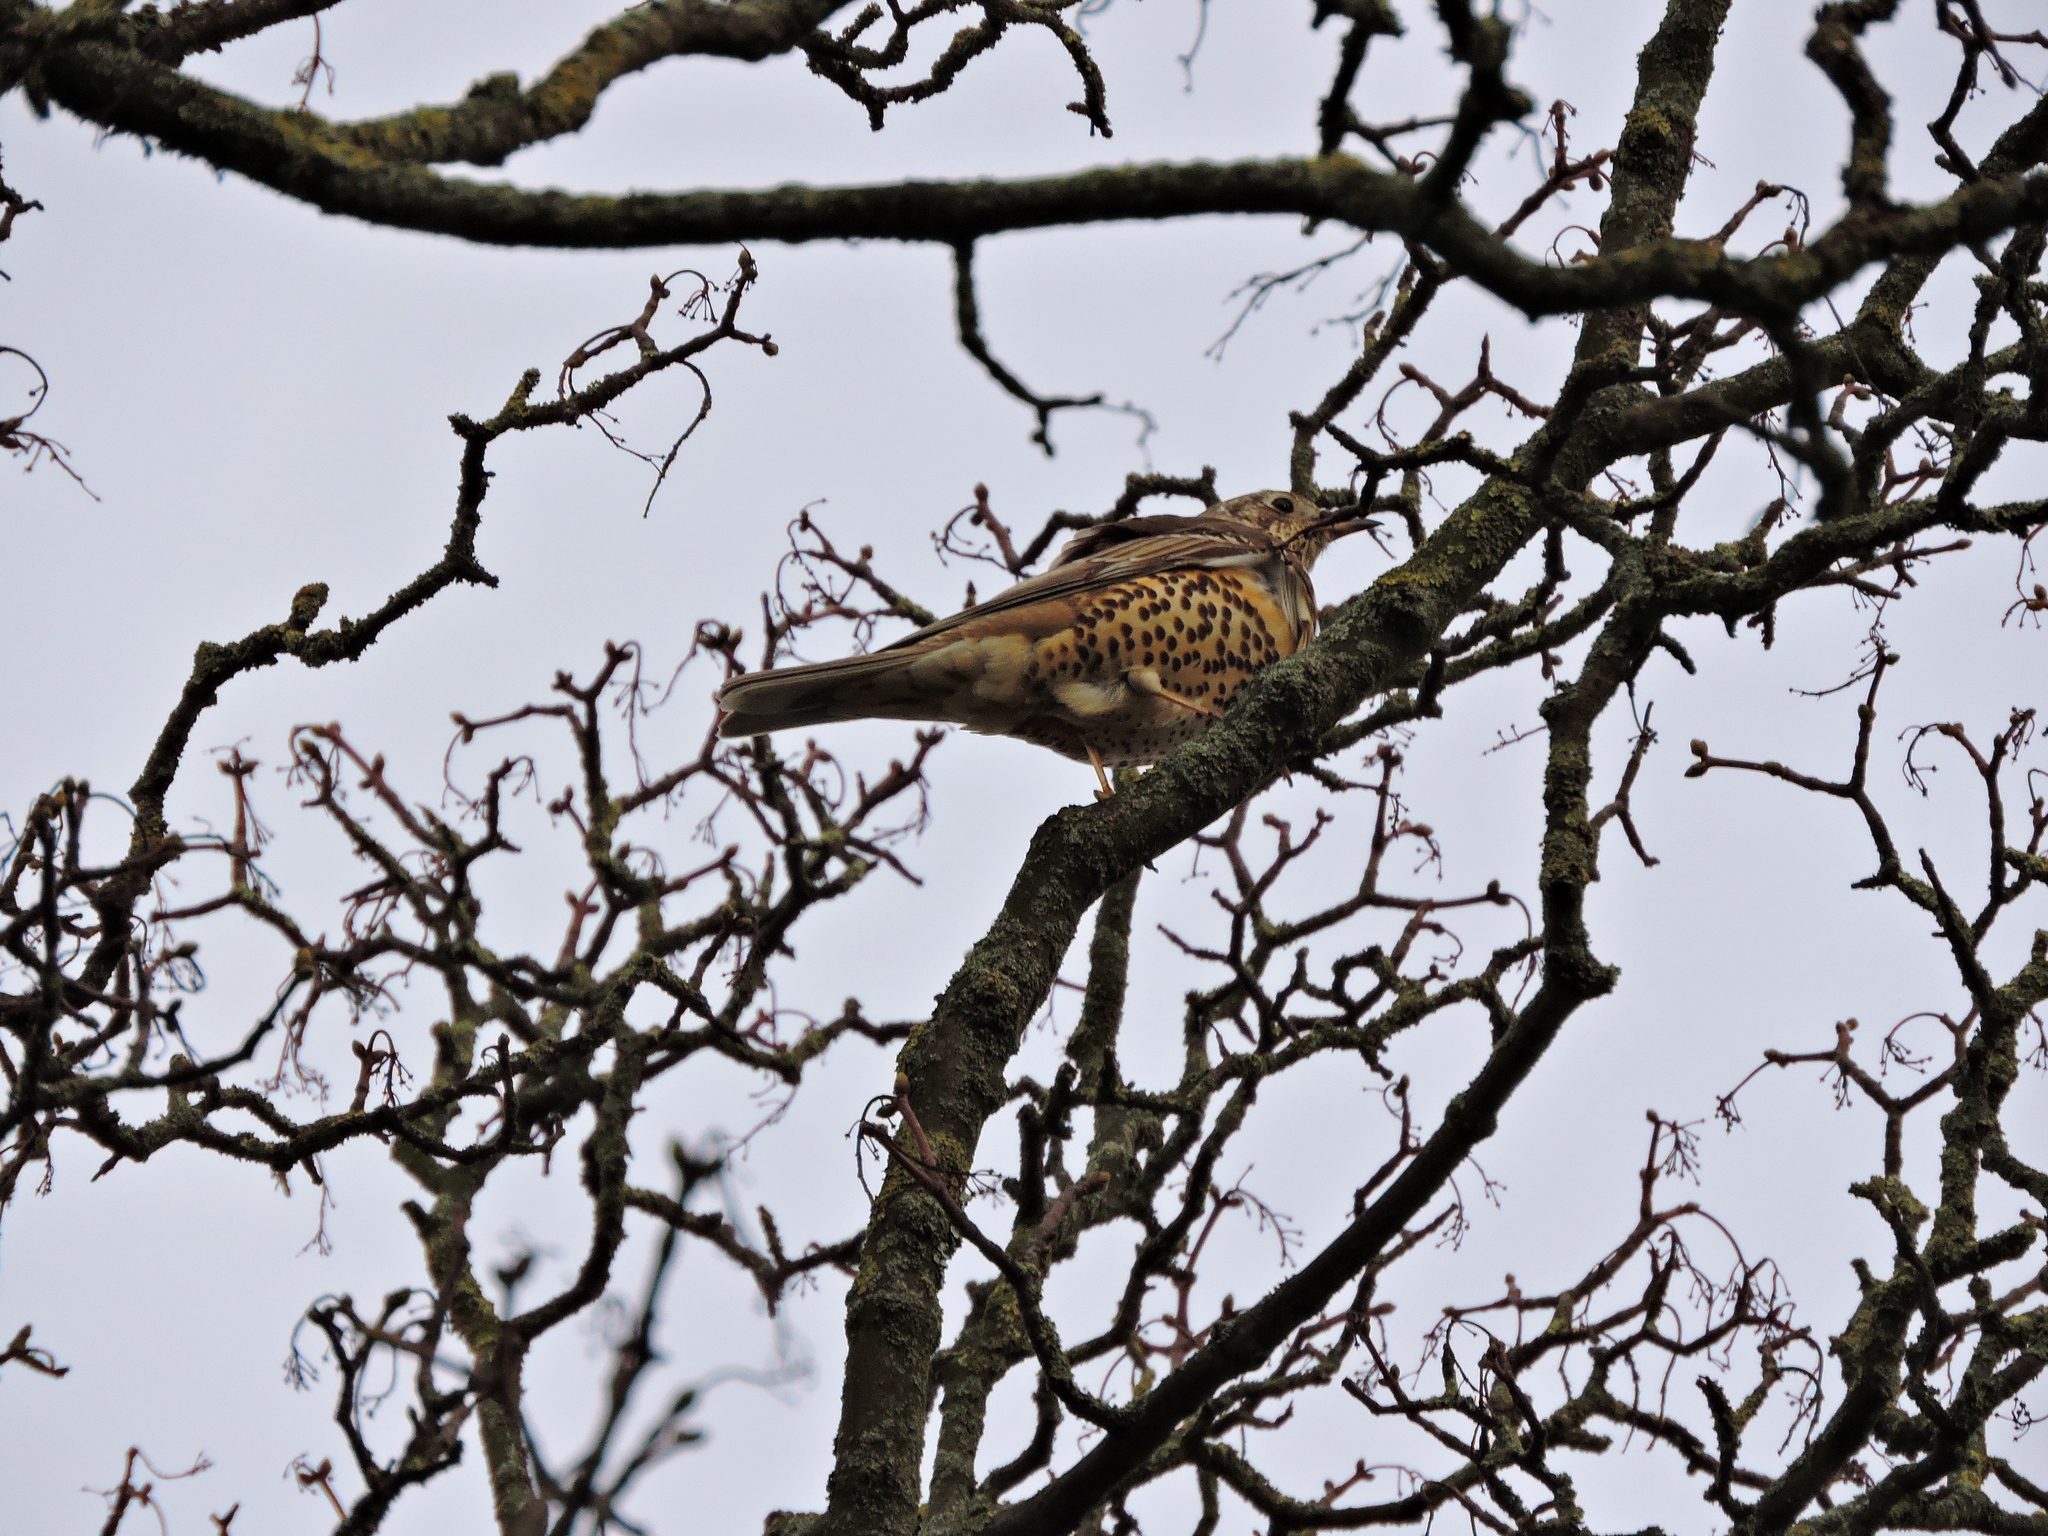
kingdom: Animalia
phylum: Chordata
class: Aves
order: Passeriformes
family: Turdidae
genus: Turdus
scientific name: Turdus viscivorus
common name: Mistle thrush
